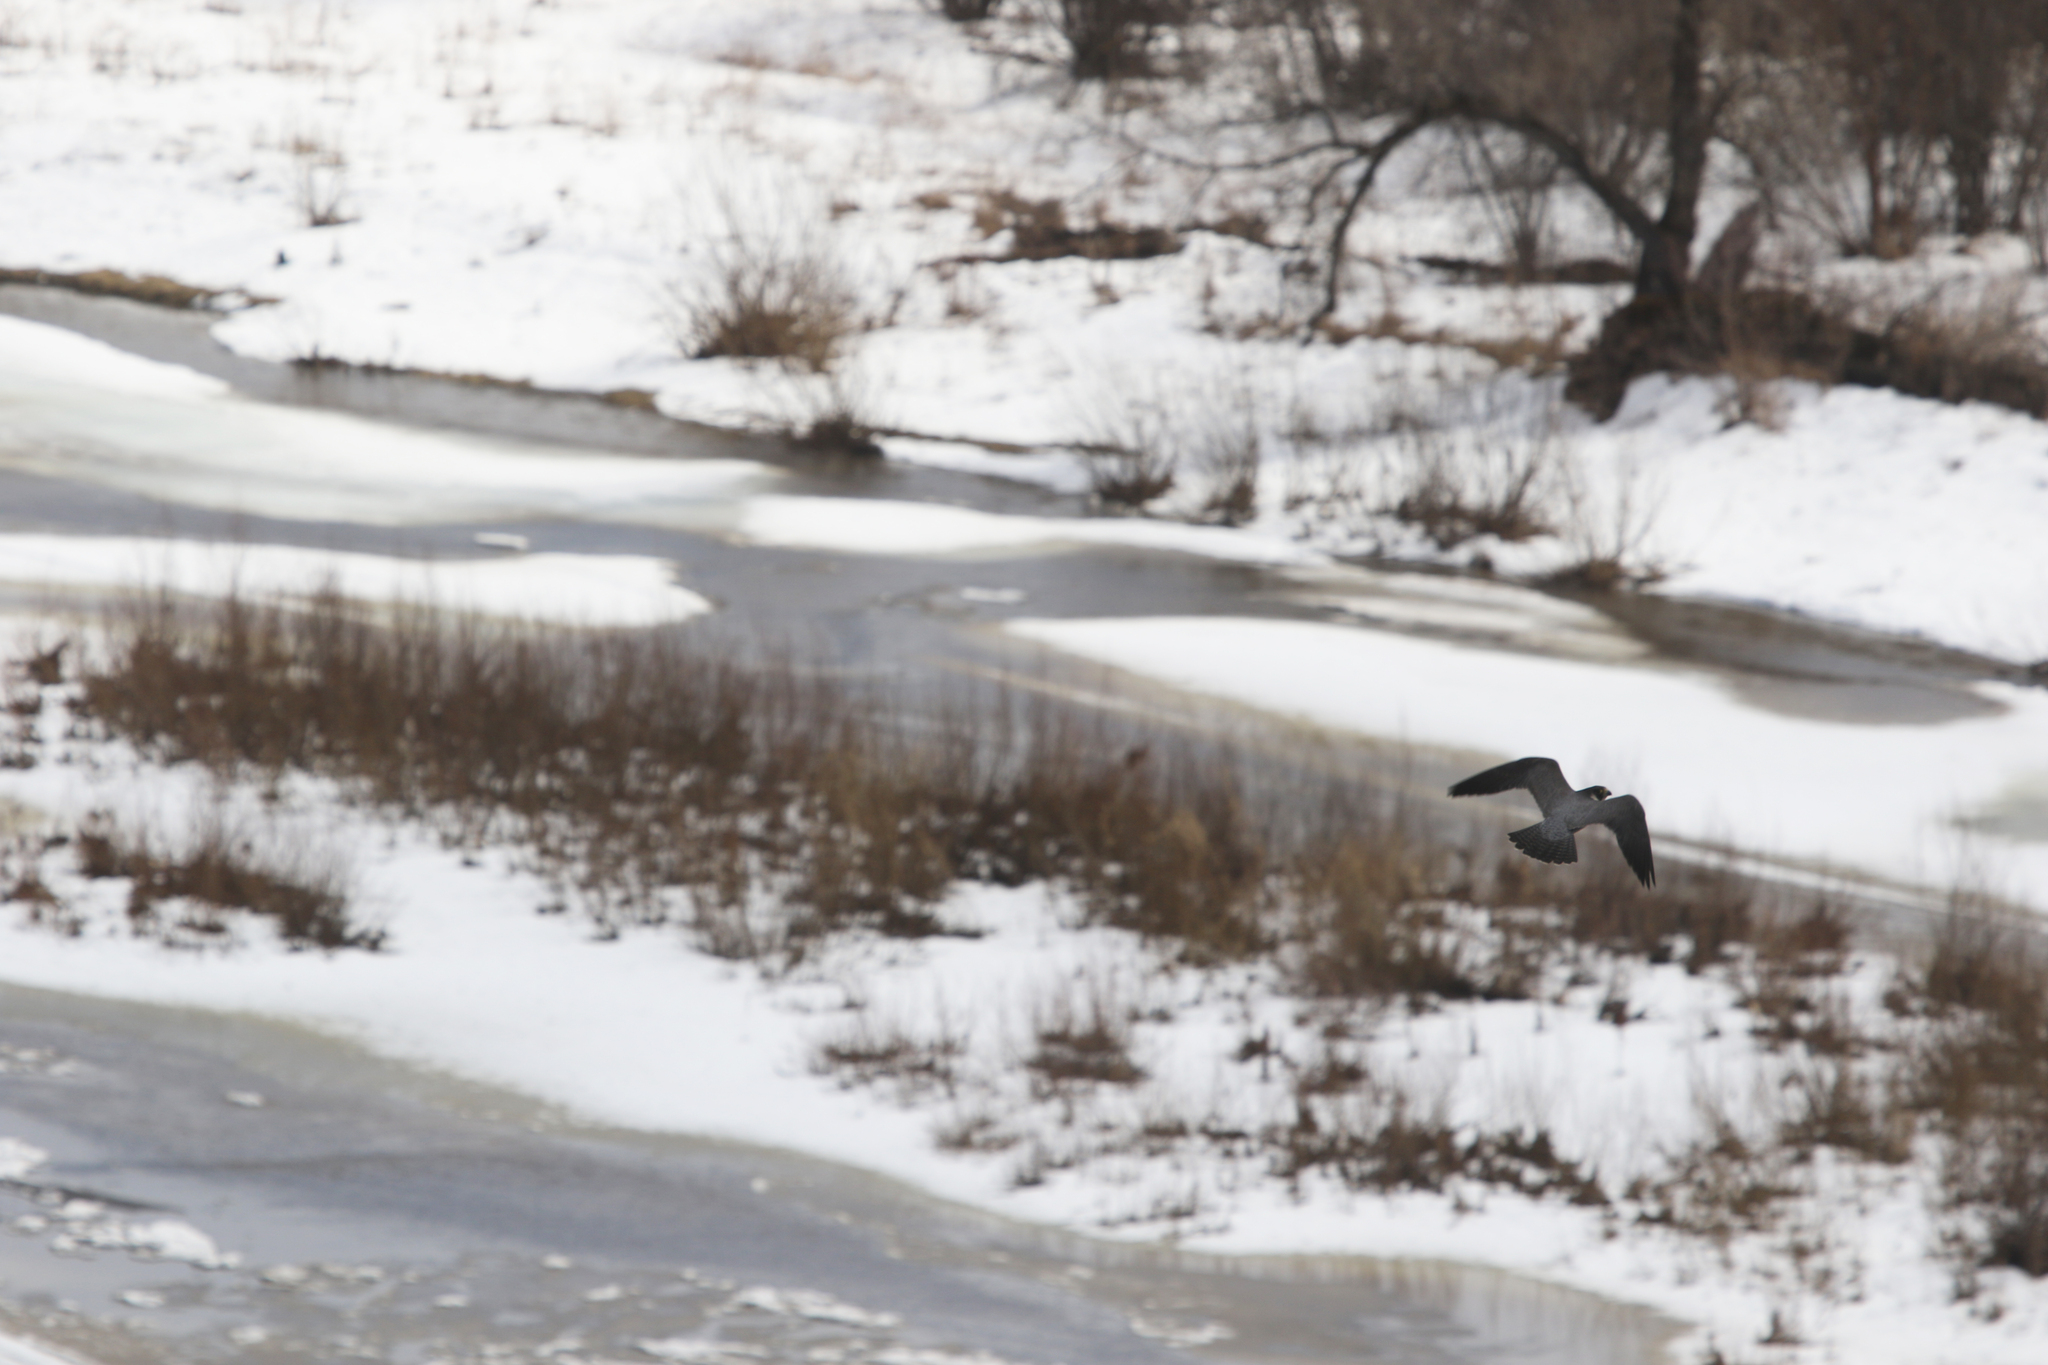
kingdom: Animalia
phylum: Chordata
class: Aves
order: Falconiformes
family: Falconidae
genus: Falco
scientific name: Falco peregrinus
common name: Peregrine falcon
